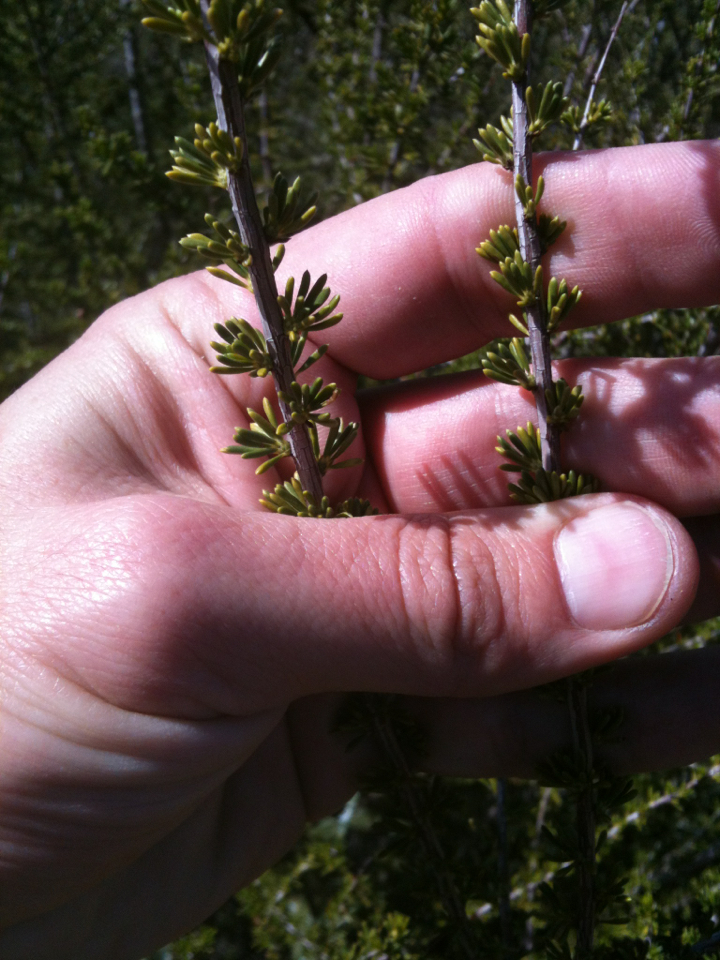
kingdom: Plantae
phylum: Tracheophyta
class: Magnoliopsida
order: Rosales
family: Rosaceae
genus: Adenostoma
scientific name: Adenostoma fasciculatum
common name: Chamise
